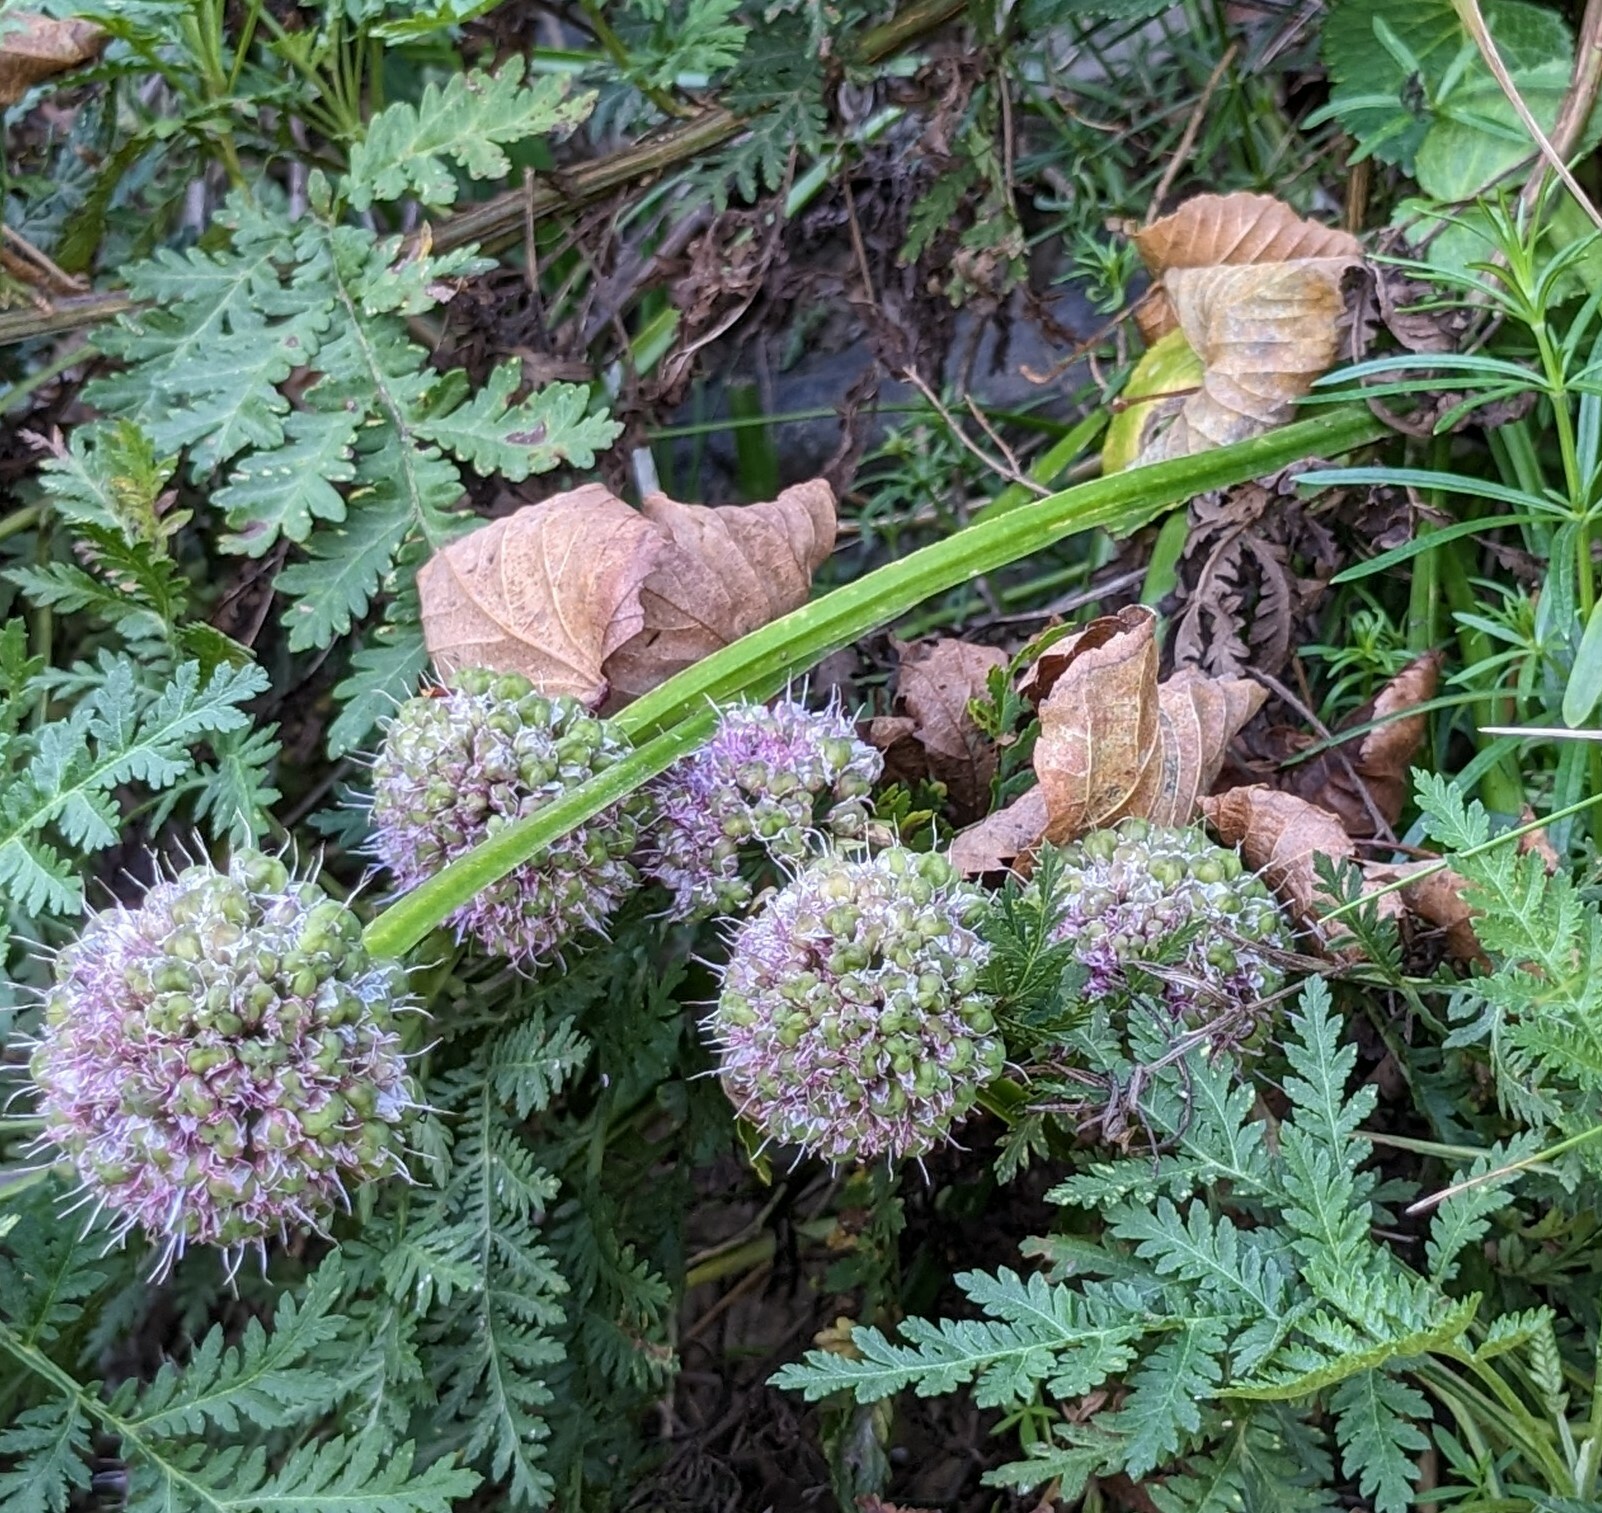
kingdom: Plantae
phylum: Tracheophyta
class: Liliopsida
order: Asparagales
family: Amaryllidaceae
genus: Allium
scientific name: Allium spirale
